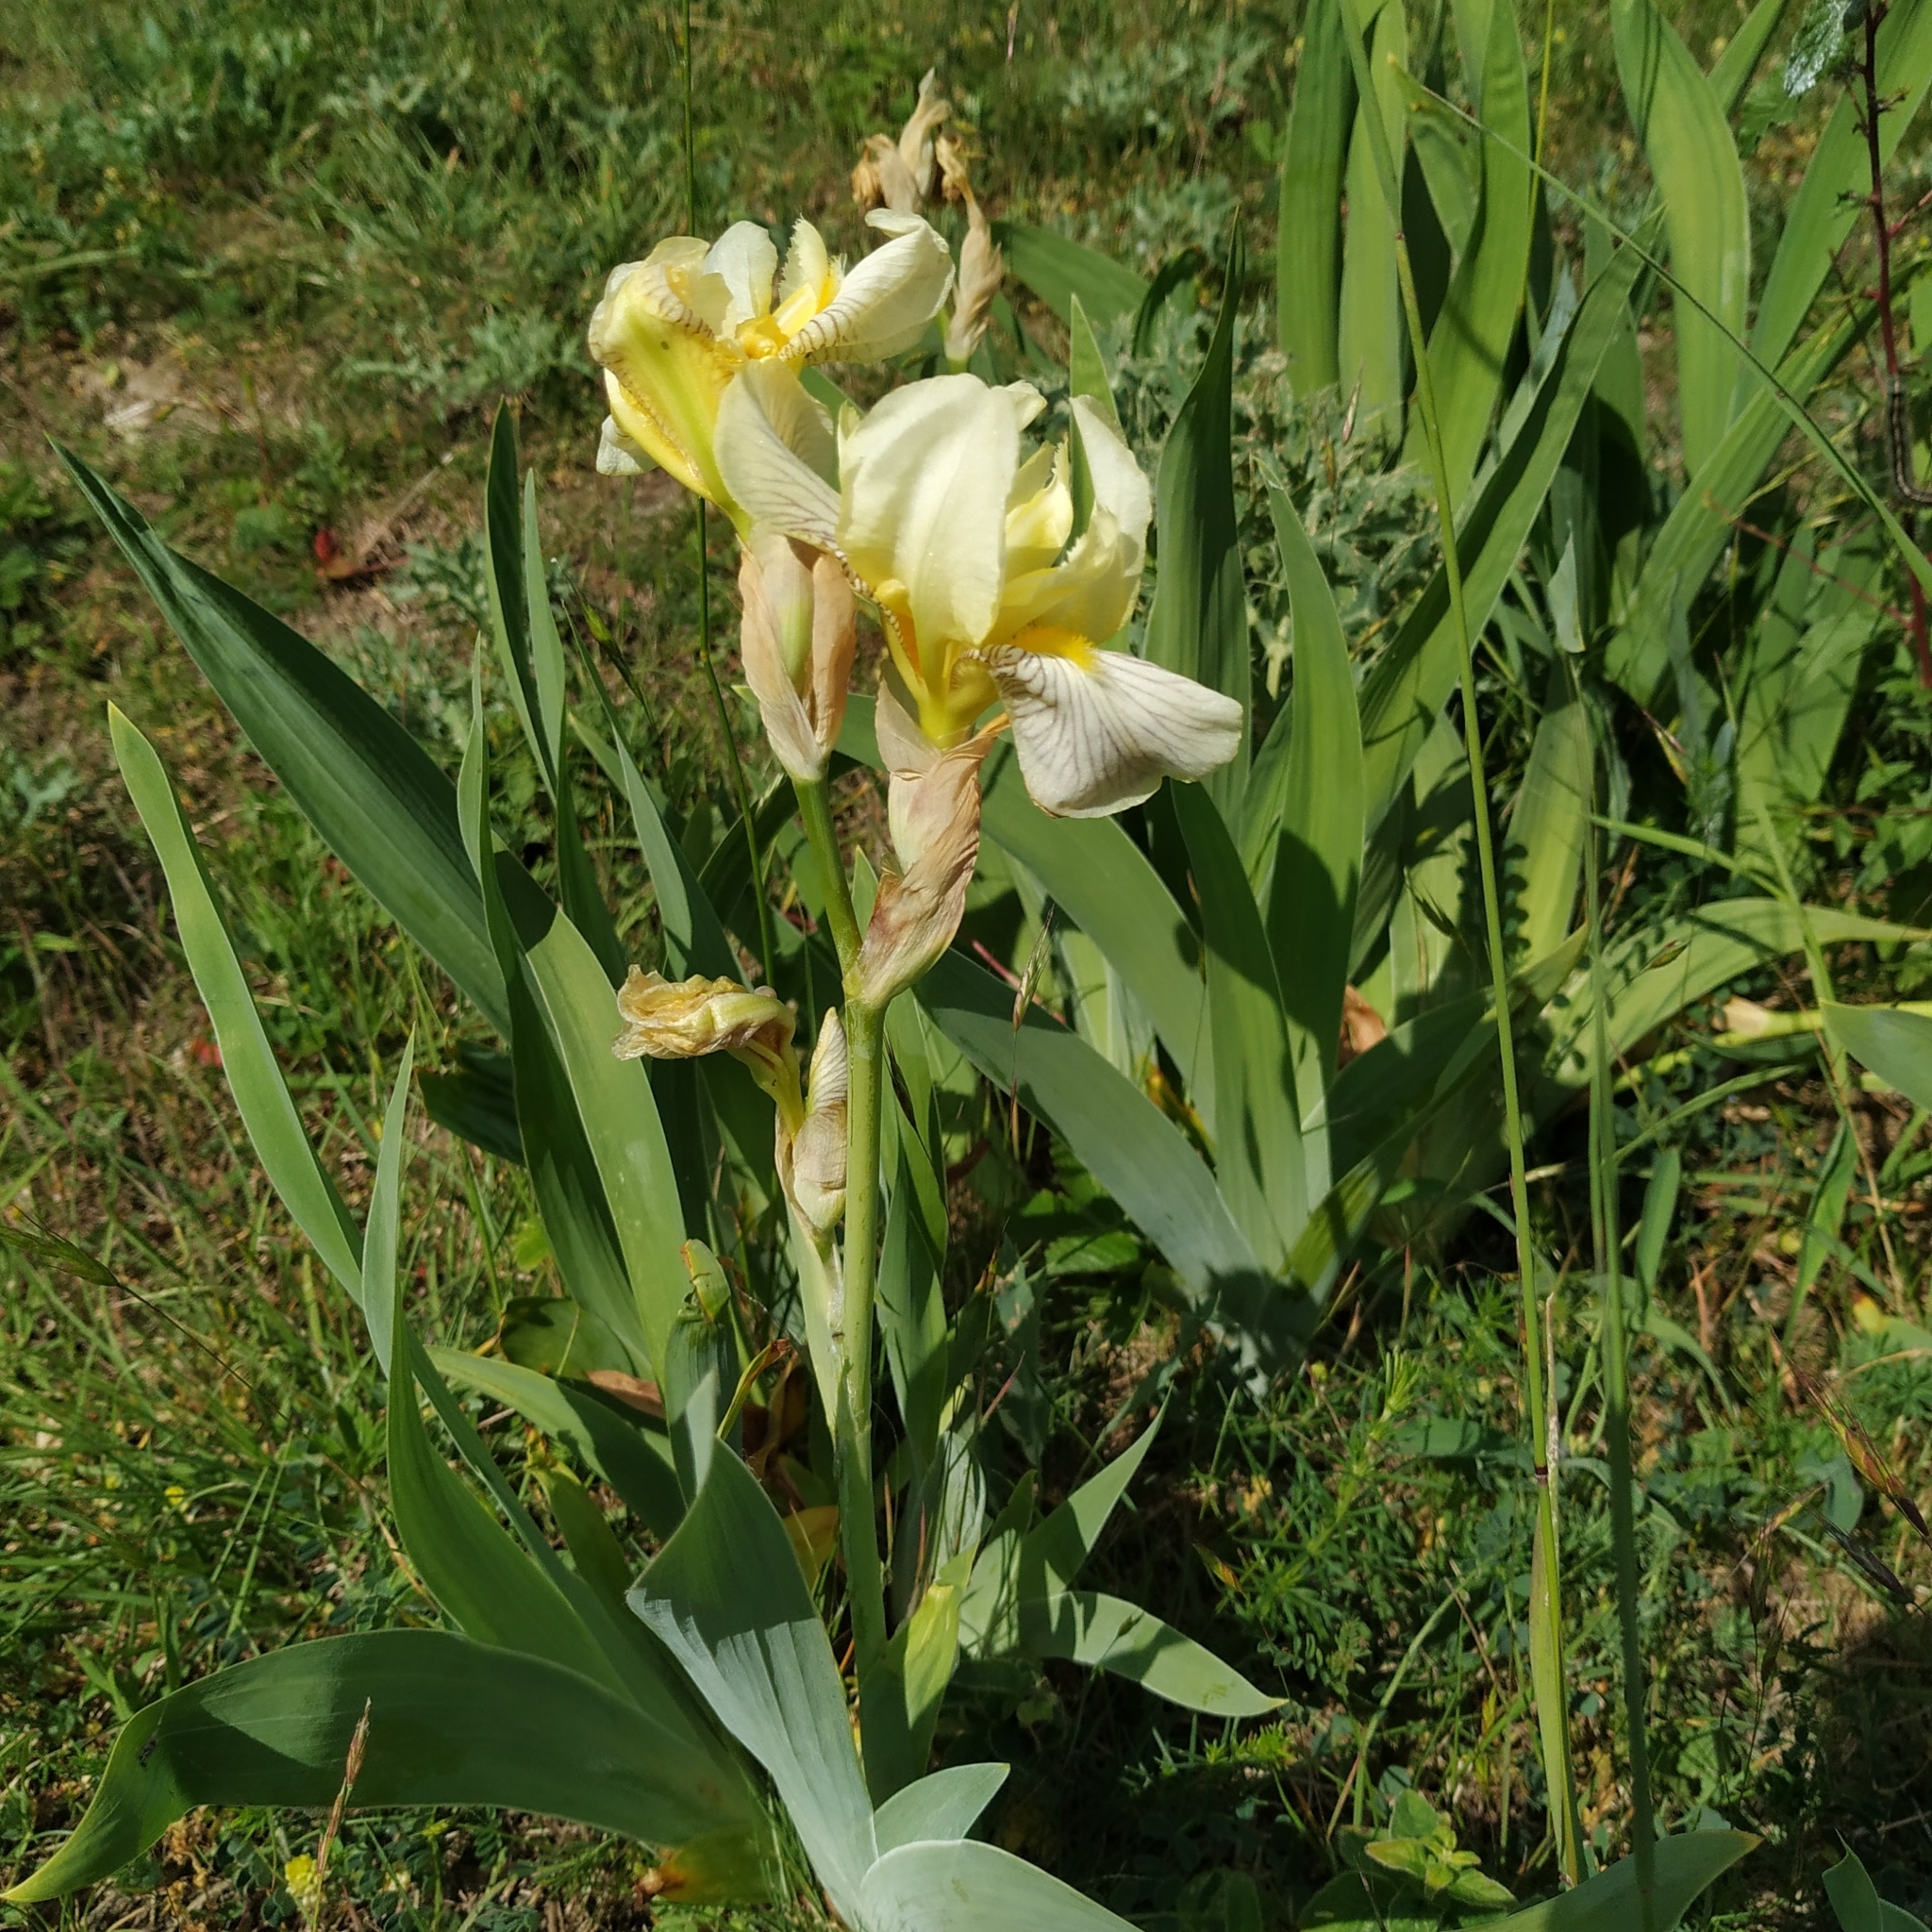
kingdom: Plantae
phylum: Tracheophyta
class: Liliopsida
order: Asparagales
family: Iridaceae
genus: Iris
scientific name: Iris hybrida
